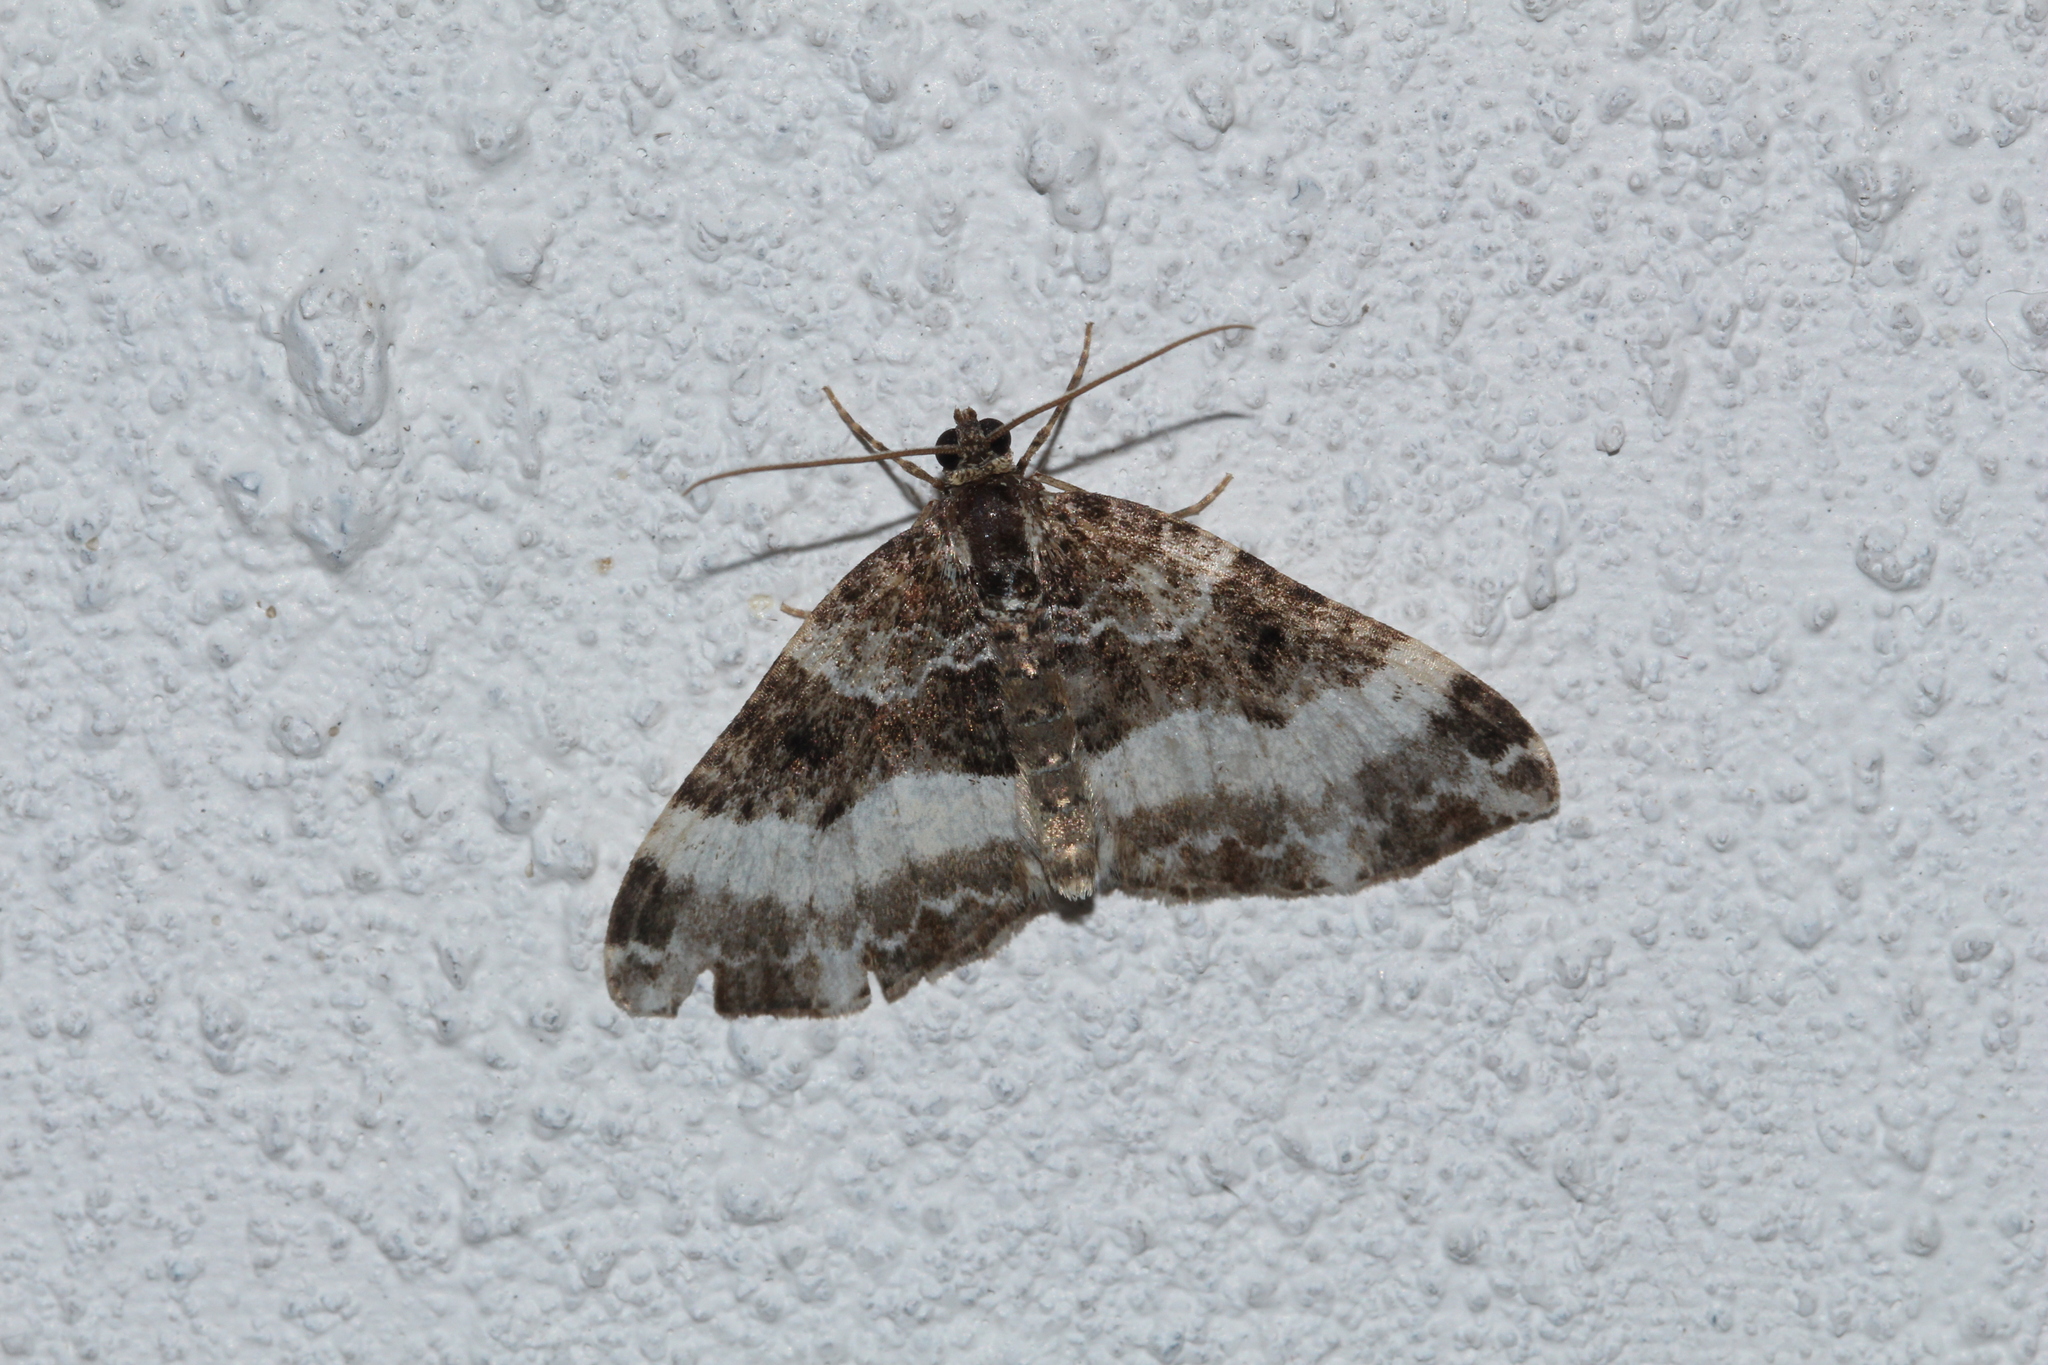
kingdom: Animalia
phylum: Arthropoda
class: Insecta
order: Lepidoptera
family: Geometridae
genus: Euphyia
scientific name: Euphyia unangulata
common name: Sharp-angled carpet
